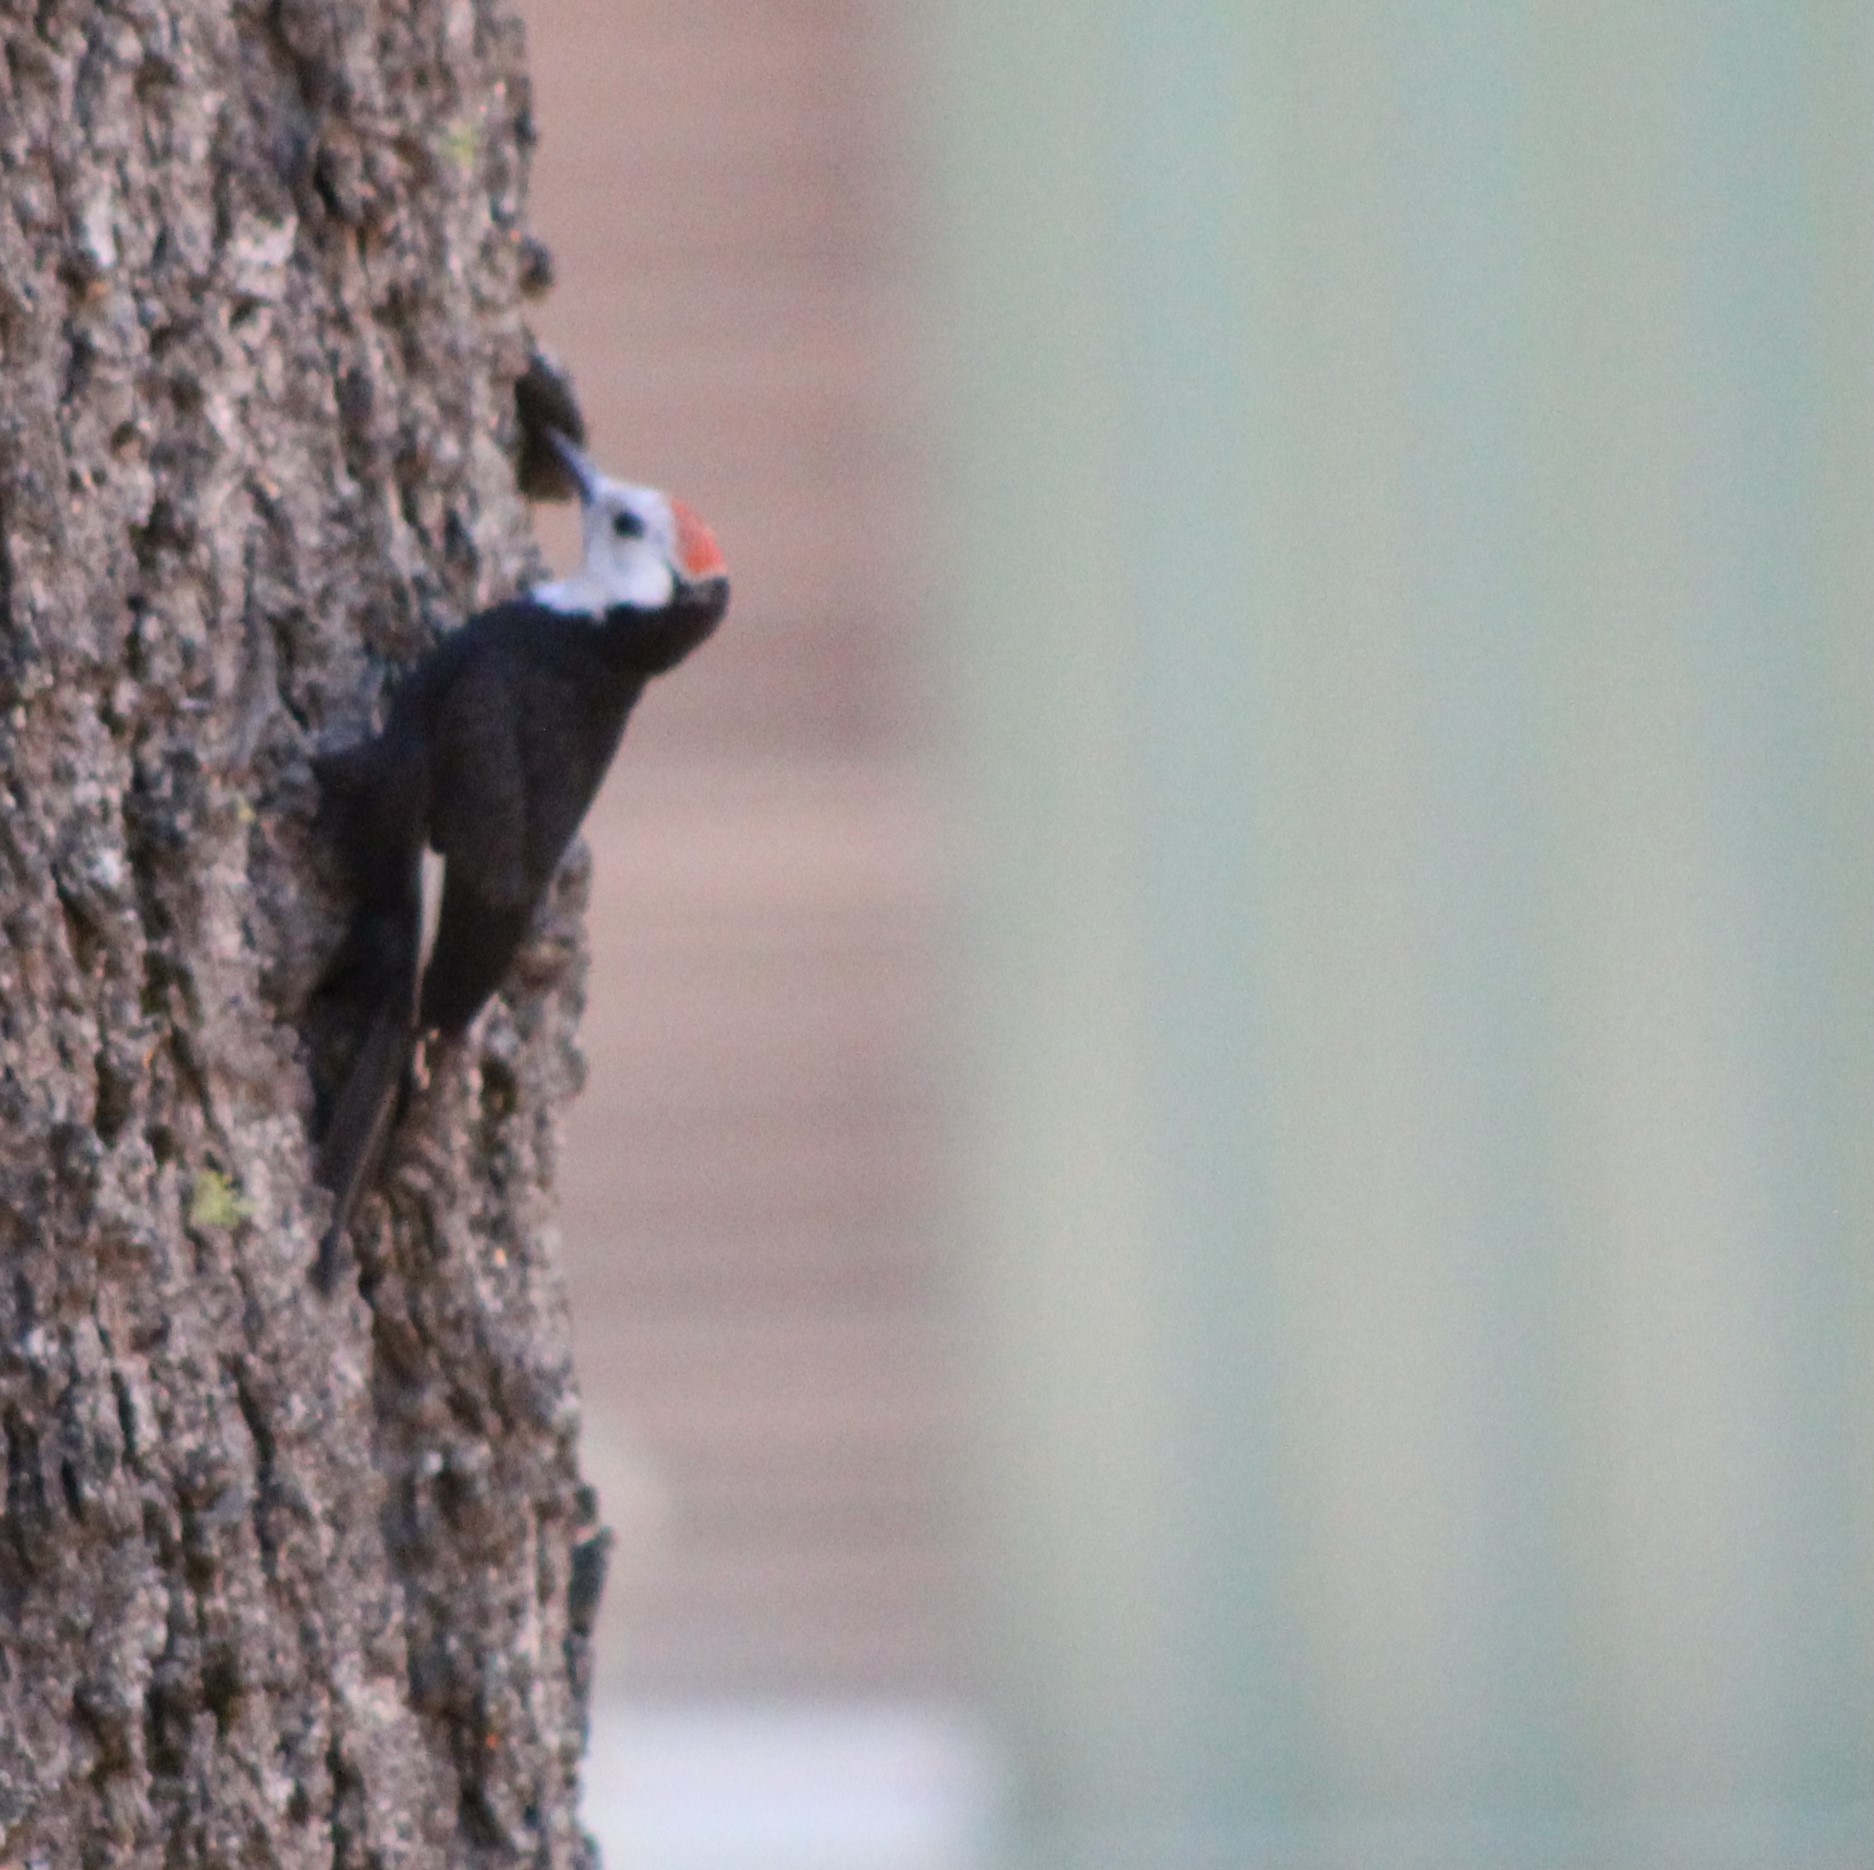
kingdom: Animalia
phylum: Chordata
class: Aves
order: Piciformes
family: Picidae
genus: Leuconotopicus
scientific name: Leuconotopicus albolarvatus
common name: White-headed woodpecker
